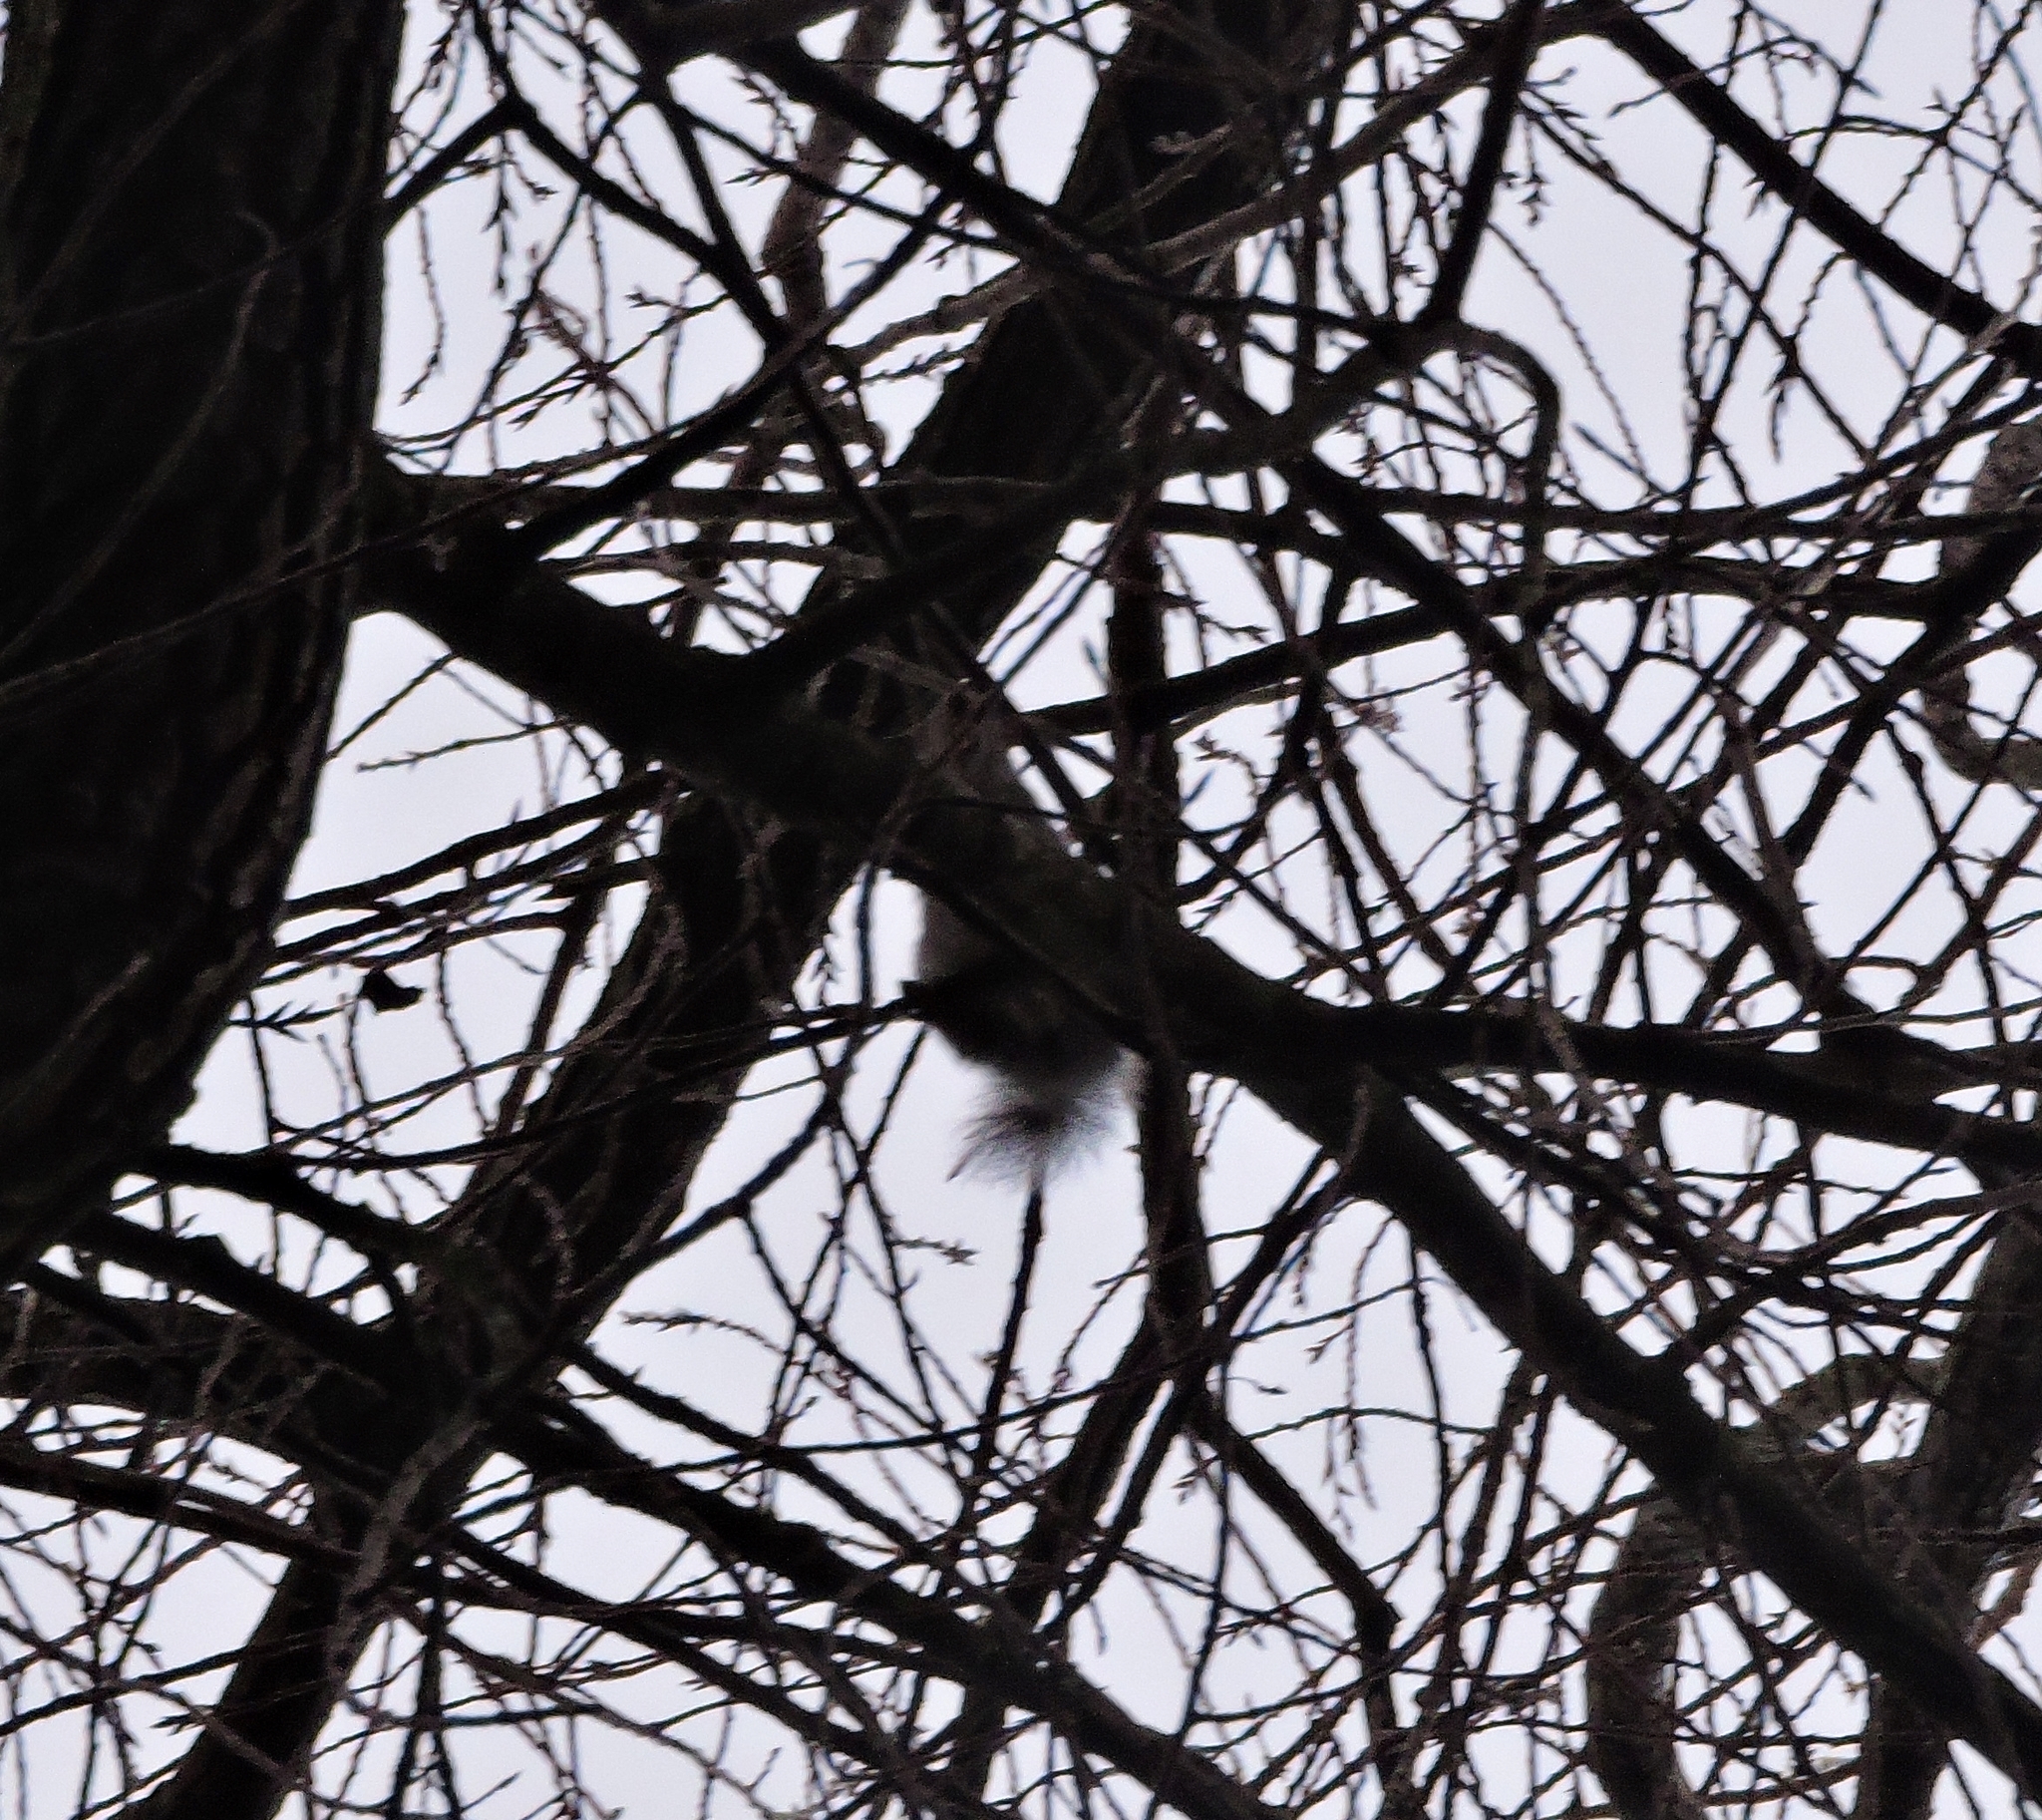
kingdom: Animalia
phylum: Chordata
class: Mammalia
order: Rodentia
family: Sciuridae
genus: Sciurus
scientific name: Sciurus carolinensis
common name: Eastern gray squirrel
